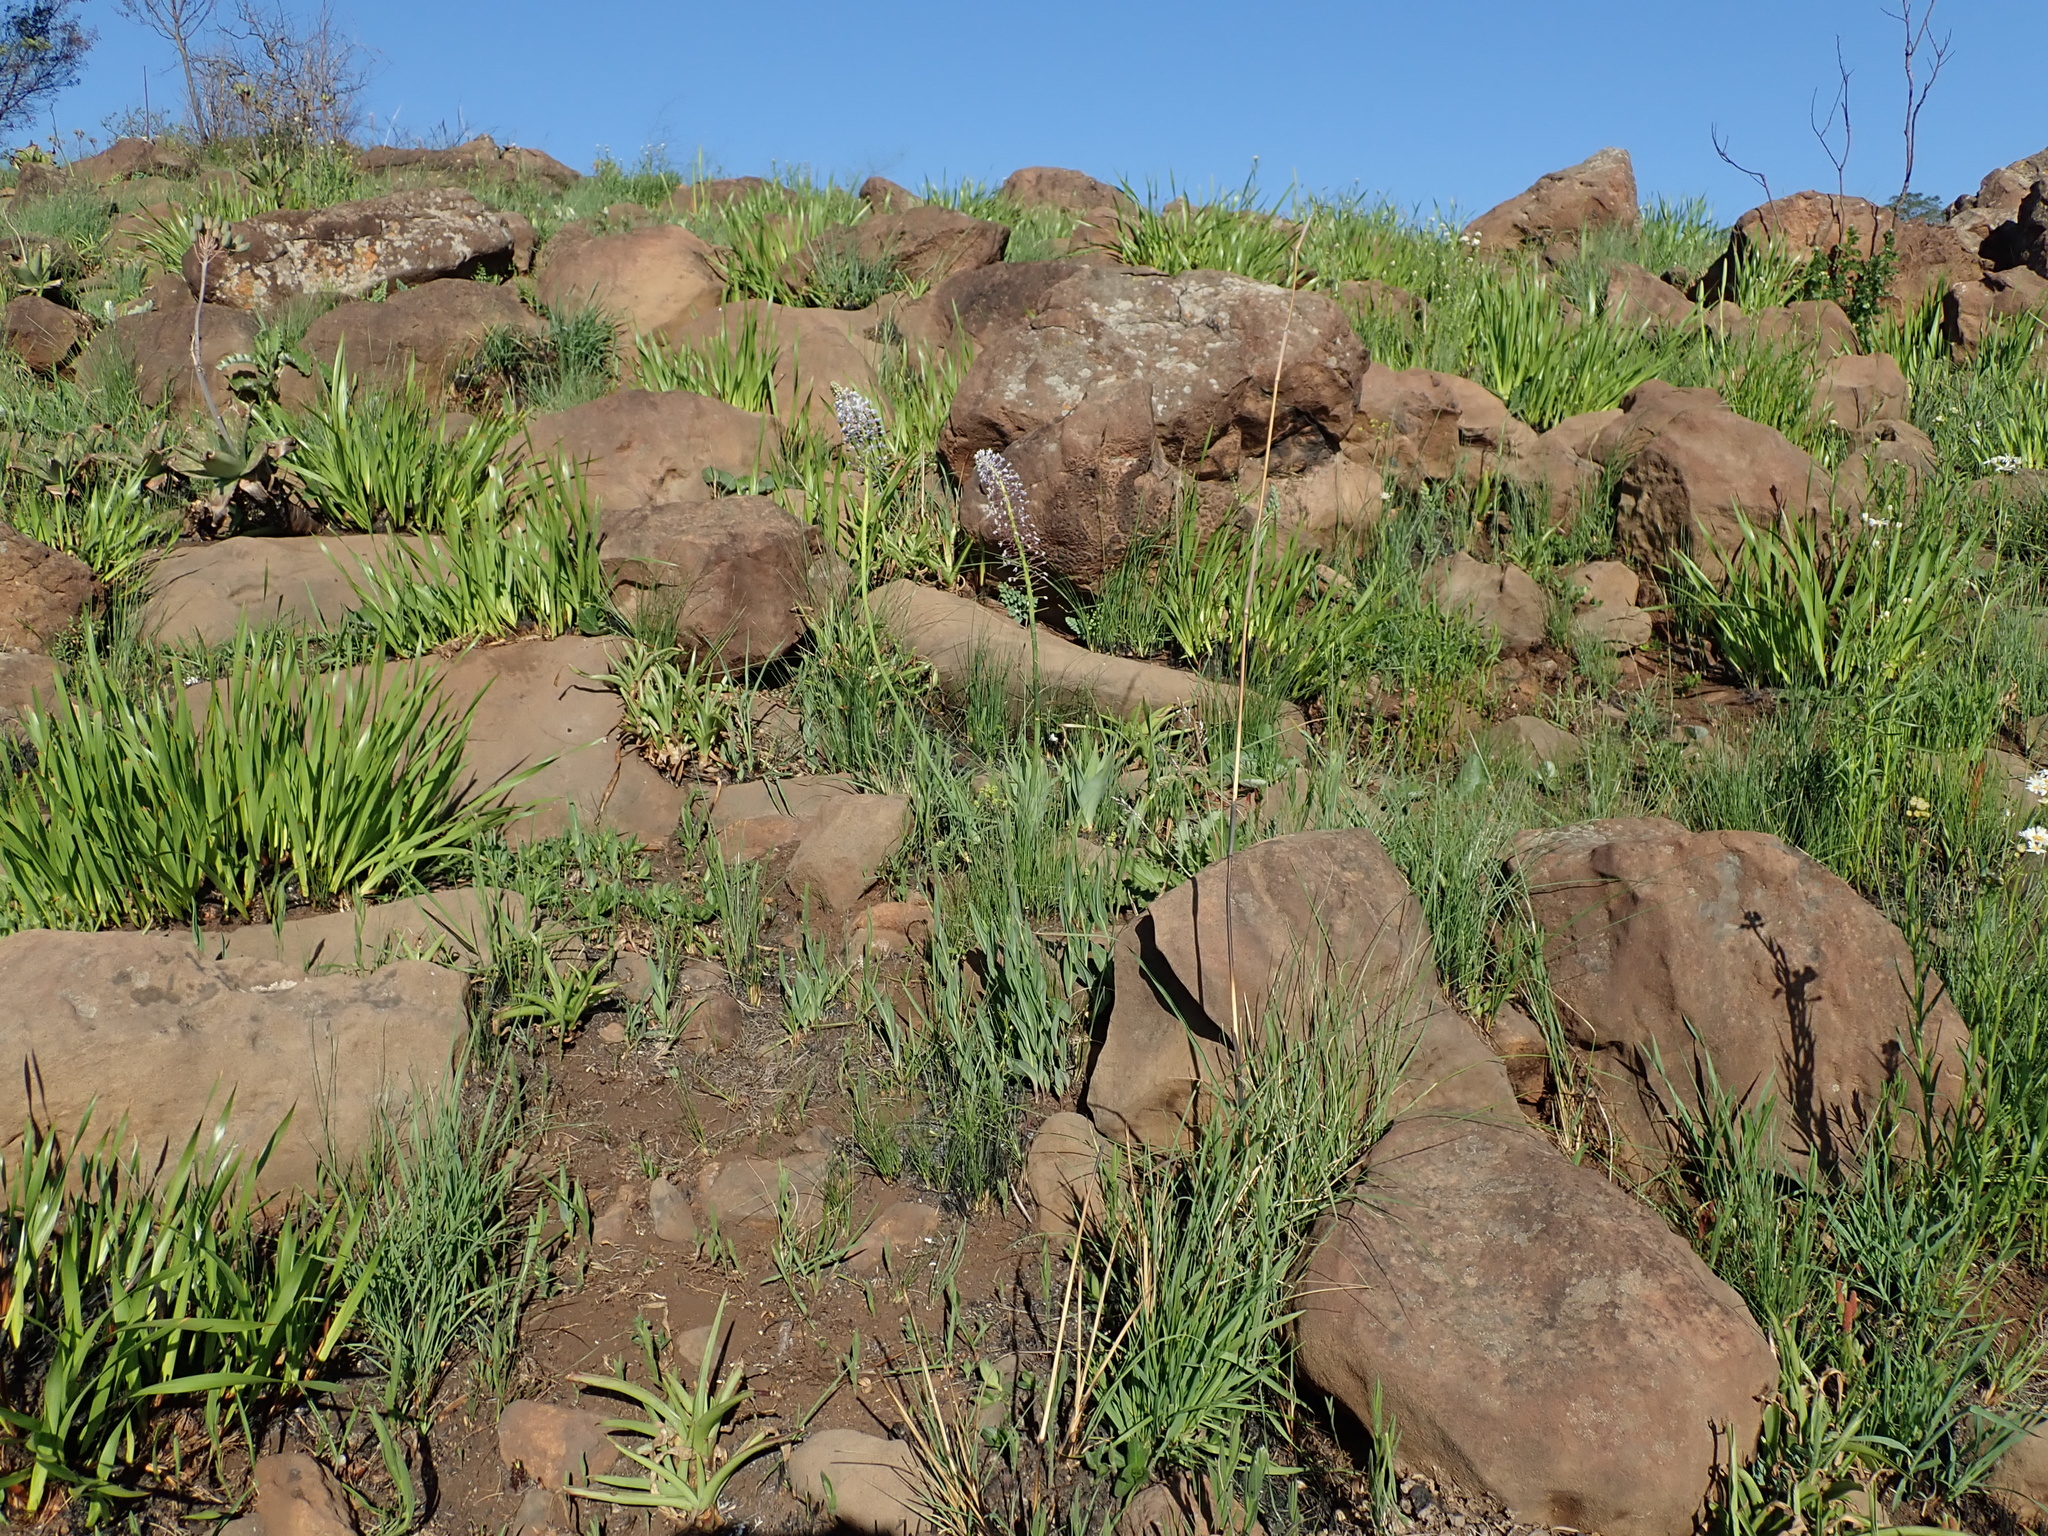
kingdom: Plantae
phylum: Tracheophyta
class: Liliopsida
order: Asparagales
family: Asparagaceae
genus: Merwilla
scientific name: Merwilla plumbea
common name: Blue-squill
